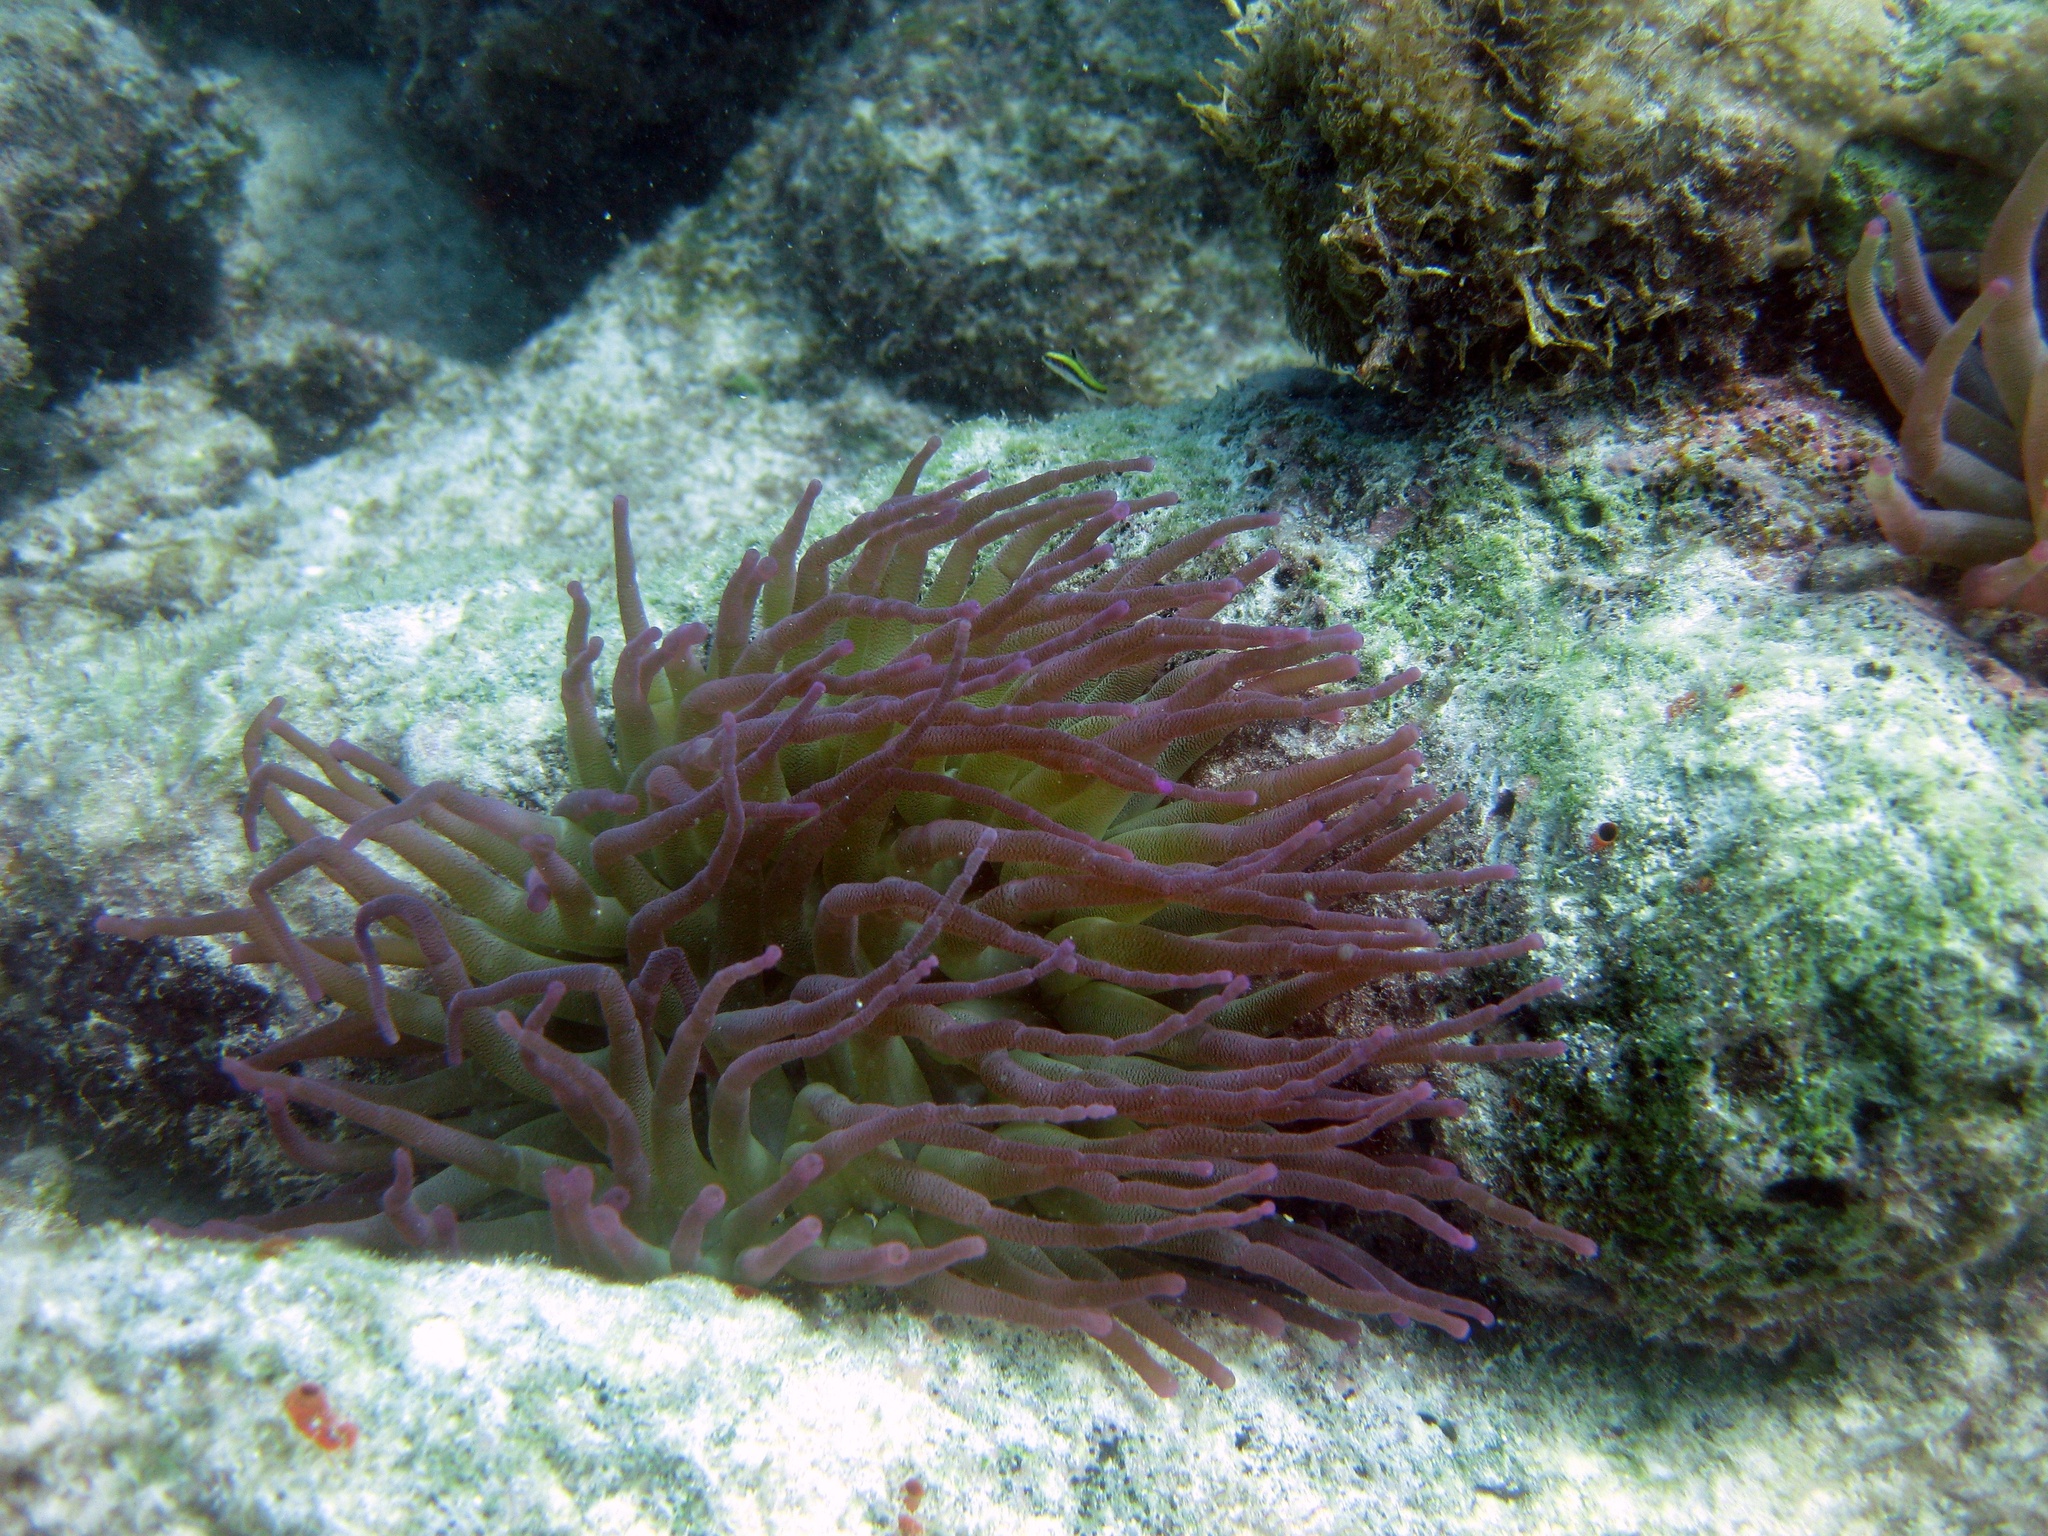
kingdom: Animalia
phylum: Cnidaria
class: Anthozoa
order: Actiniaria
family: Actiniidae
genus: Condylactis
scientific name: Condylactis gigantea
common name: Giant caribbean anemone
